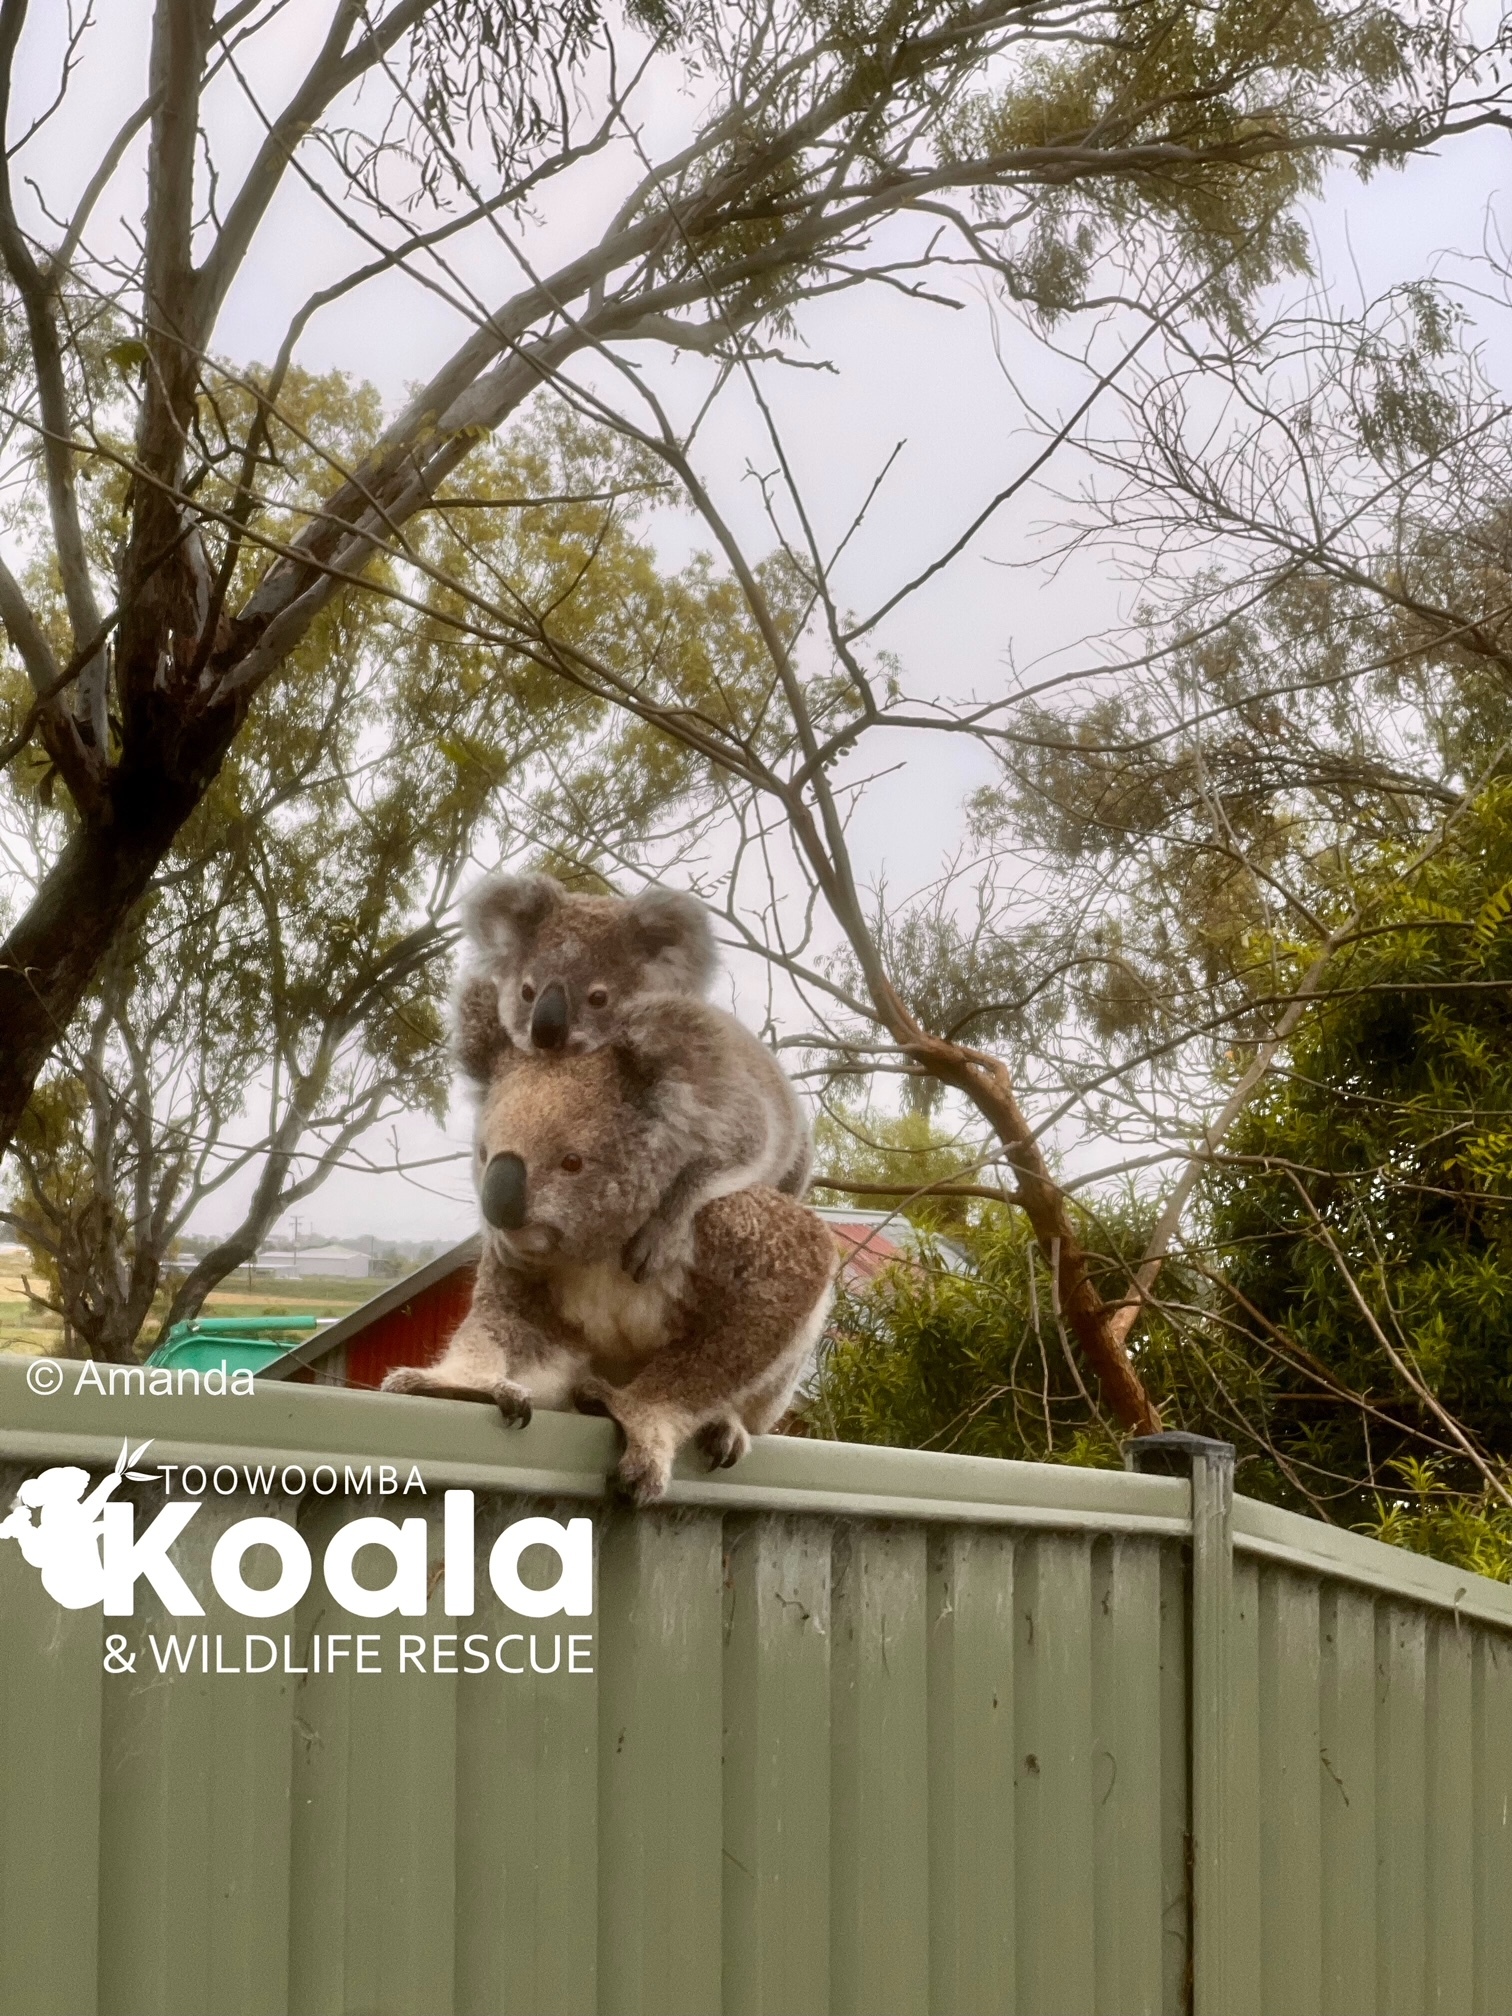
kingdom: Animalia
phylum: Chordata
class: Mammalia
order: Diprotodontia
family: Phascolarctidae
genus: Phascolarctos
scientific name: Phascolarctos cinereus
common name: Koala
